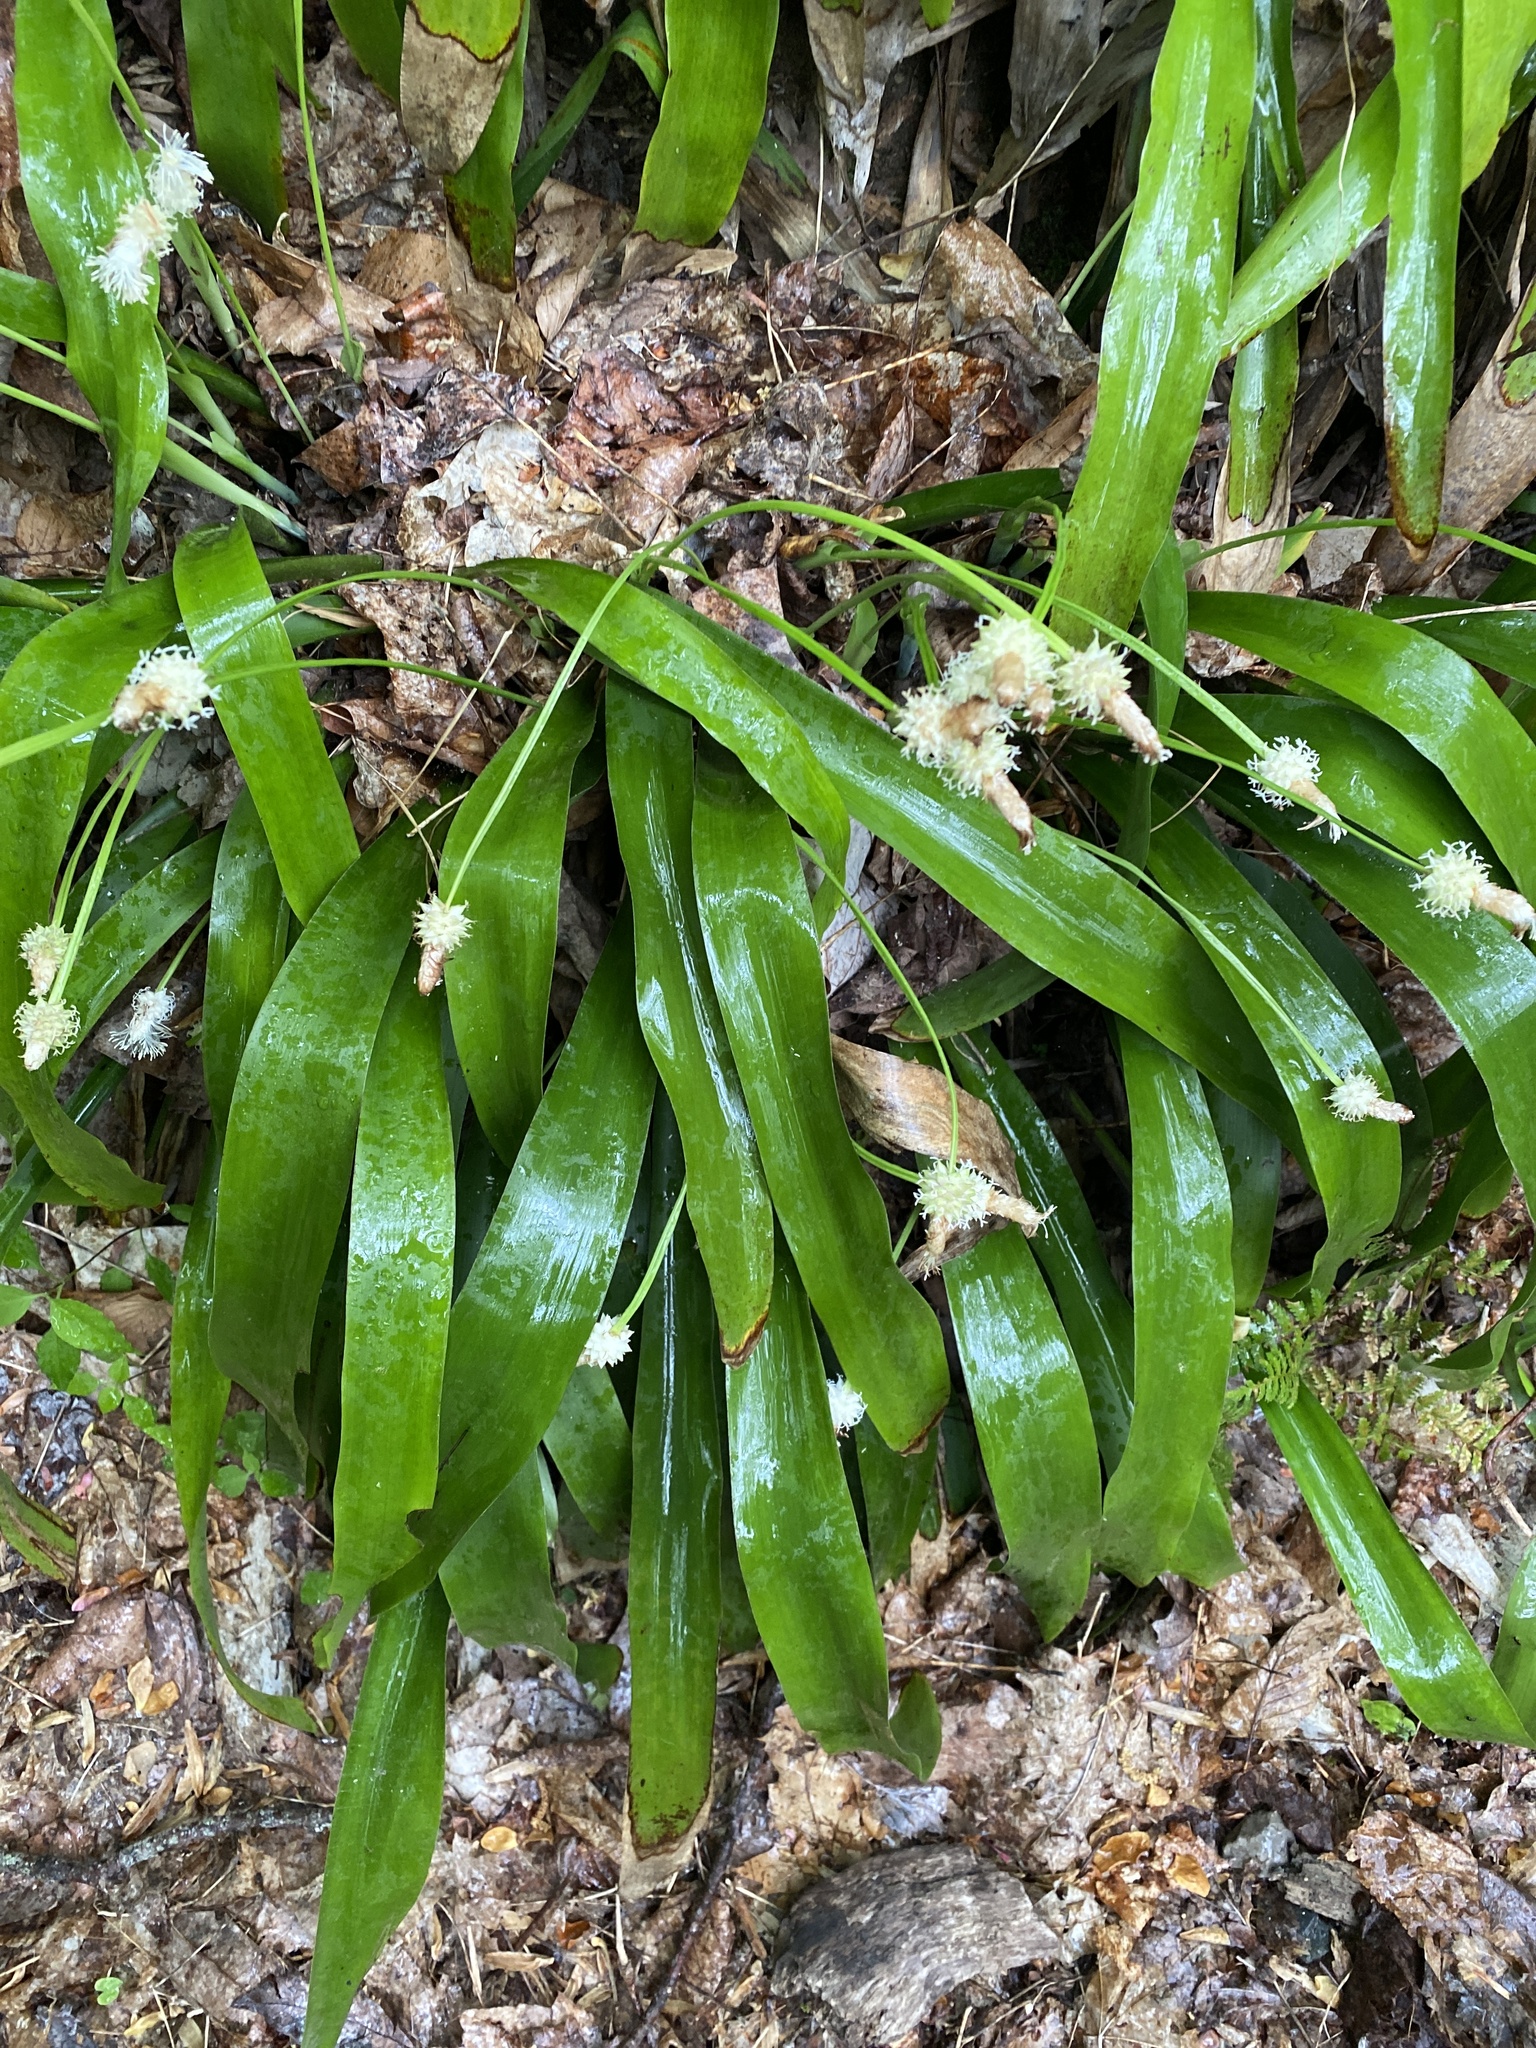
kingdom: Plantae
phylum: Tracheophyta
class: Liliopsida
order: Poales
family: Cyperaceae
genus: Carex
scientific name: Carex fraseriana
